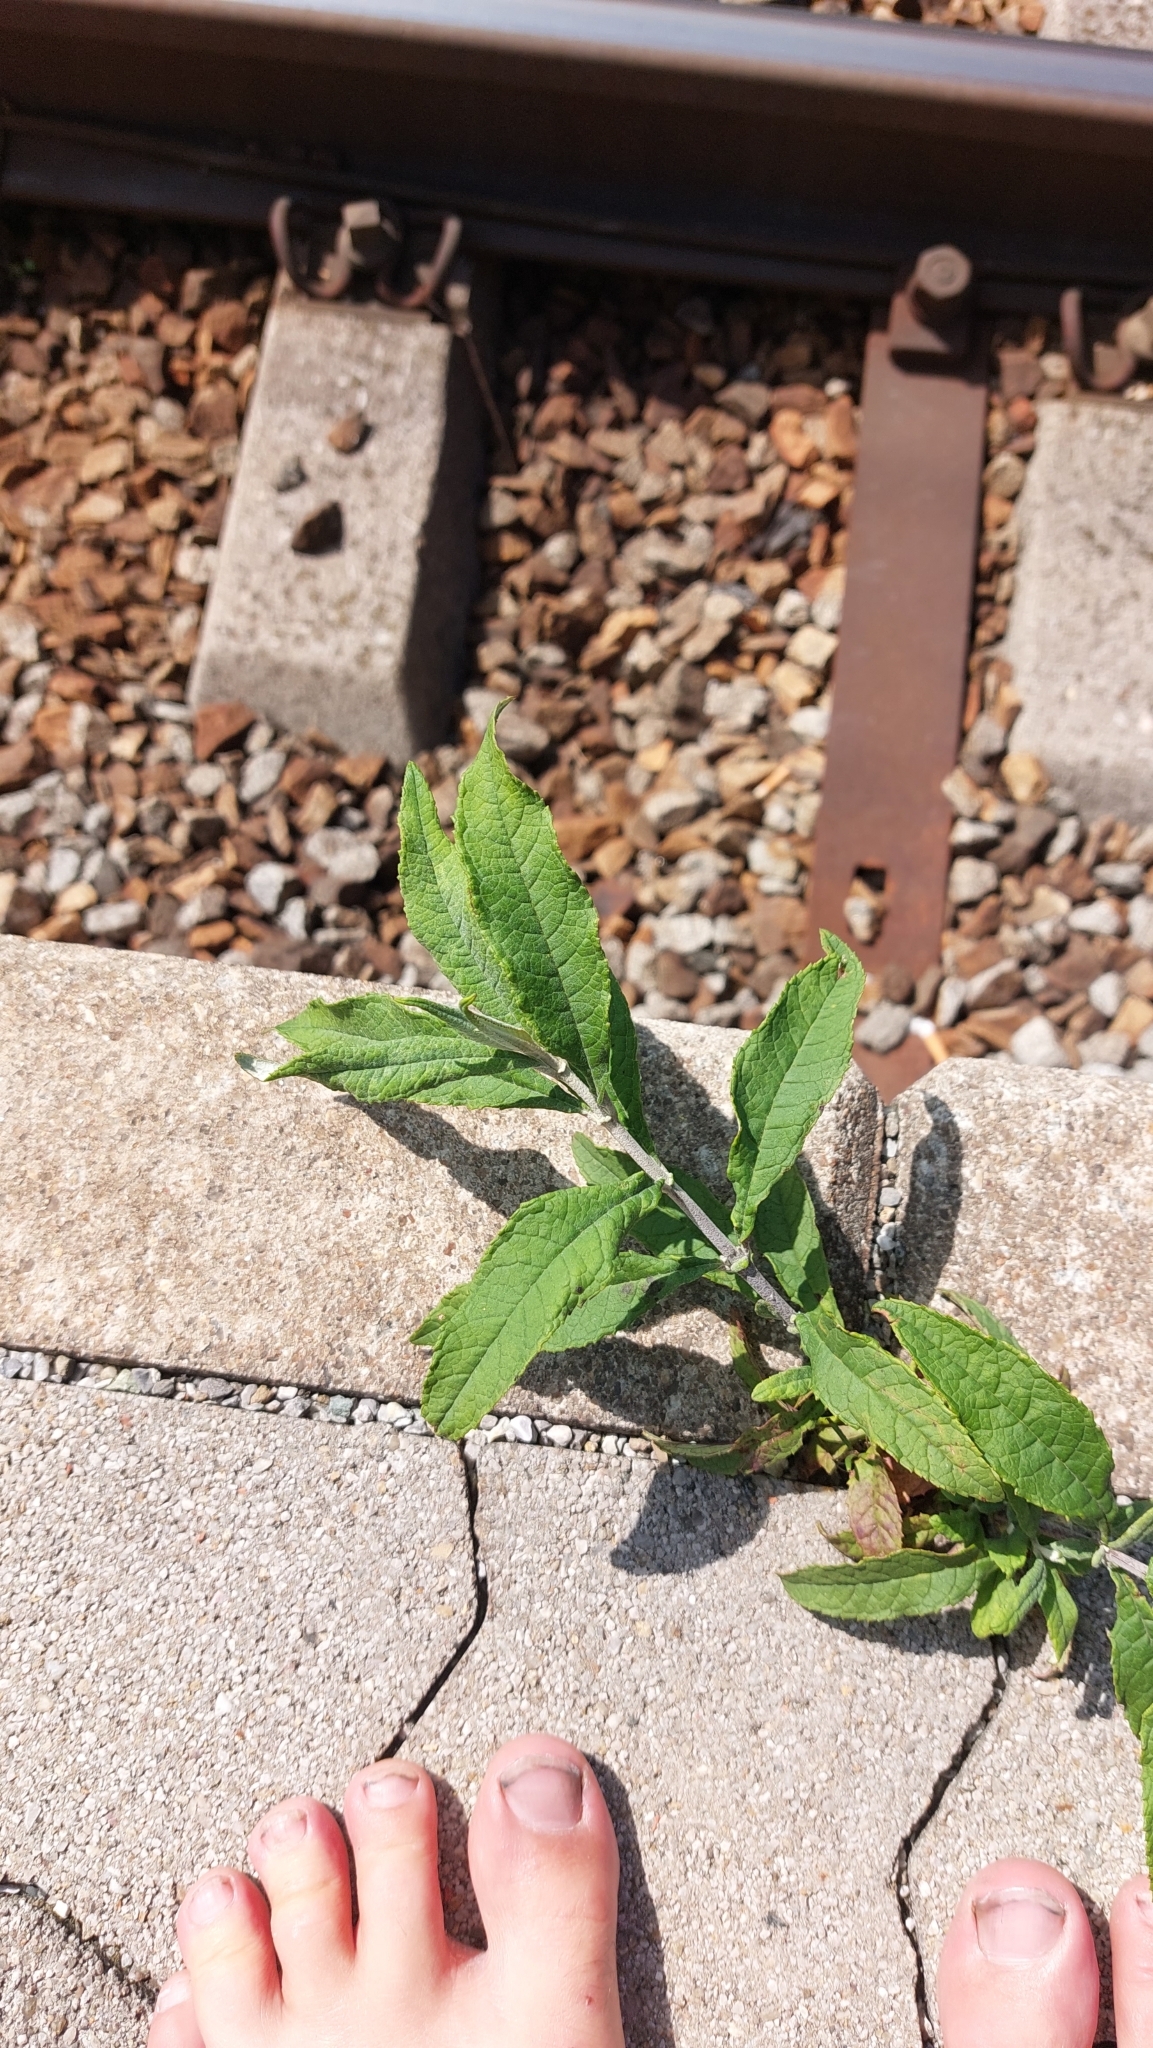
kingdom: Plantae
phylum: Tracheophyta
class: Magnoliopsida
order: Lamiales
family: Scrophulariaceae
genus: Buddleja
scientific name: Buddleja davidii
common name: Butterfly-bush
